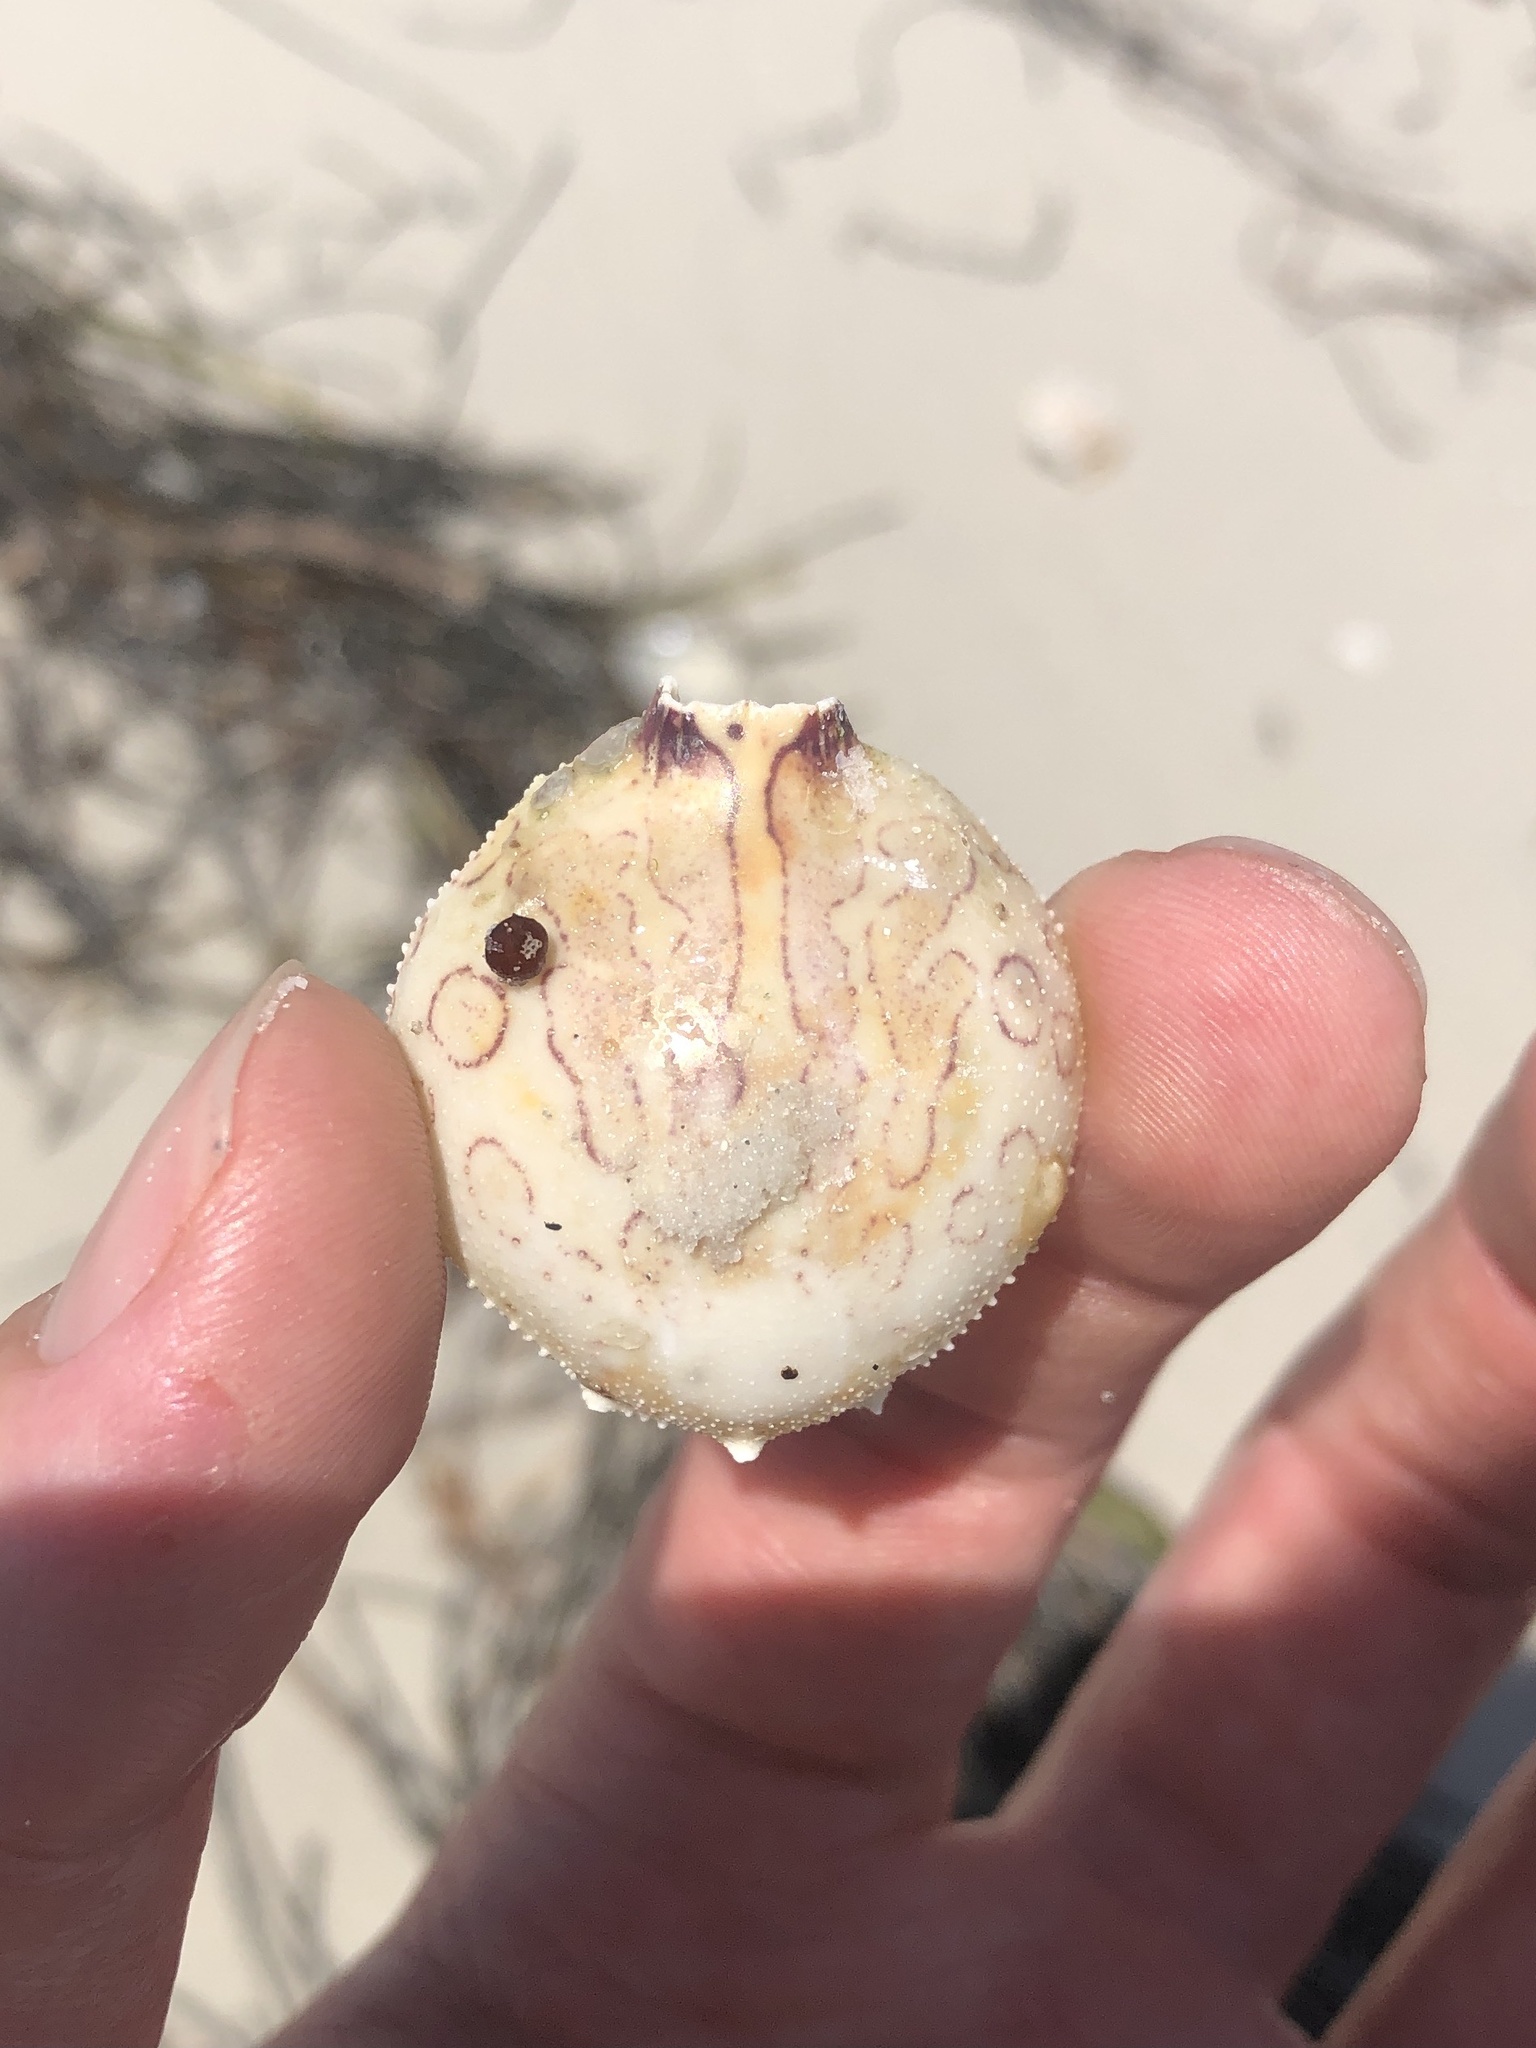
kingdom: Animalia
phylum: Arthropoda
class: Malacostraca
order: Decapoda
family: Leucosiidae
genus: Persephona
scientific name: Persephona mediterranea
